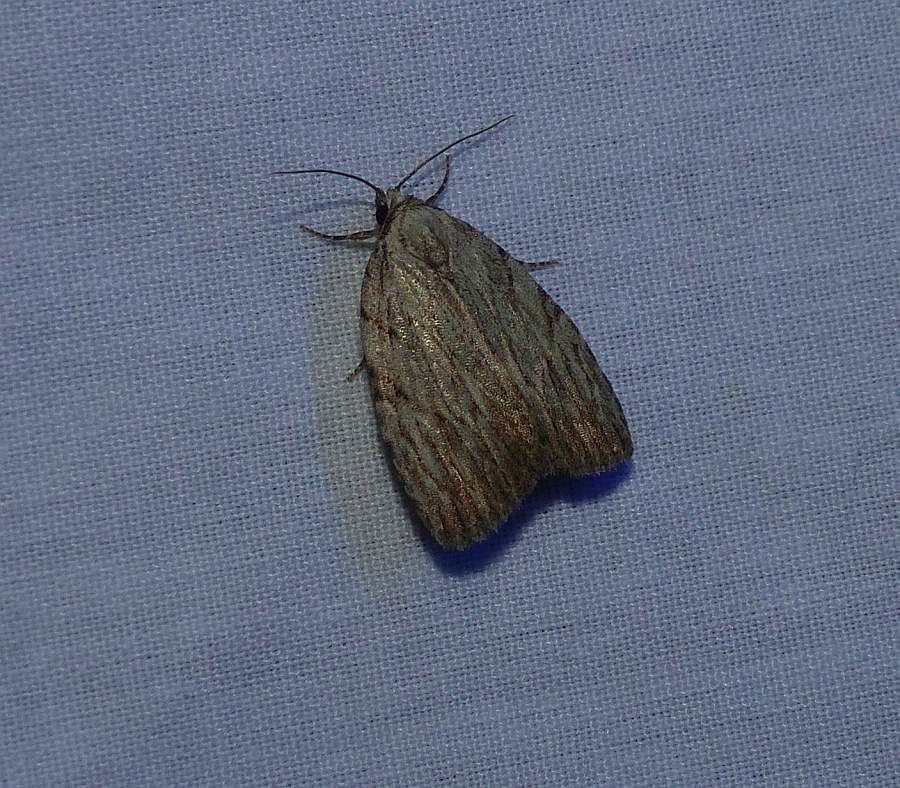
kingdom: Animalia
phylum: Arthropoda
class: Insecta
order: Lepidoptera
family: Noctuidae
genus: Balsa
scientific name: Balsa tristrigella
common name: Three-lined balsa moth
